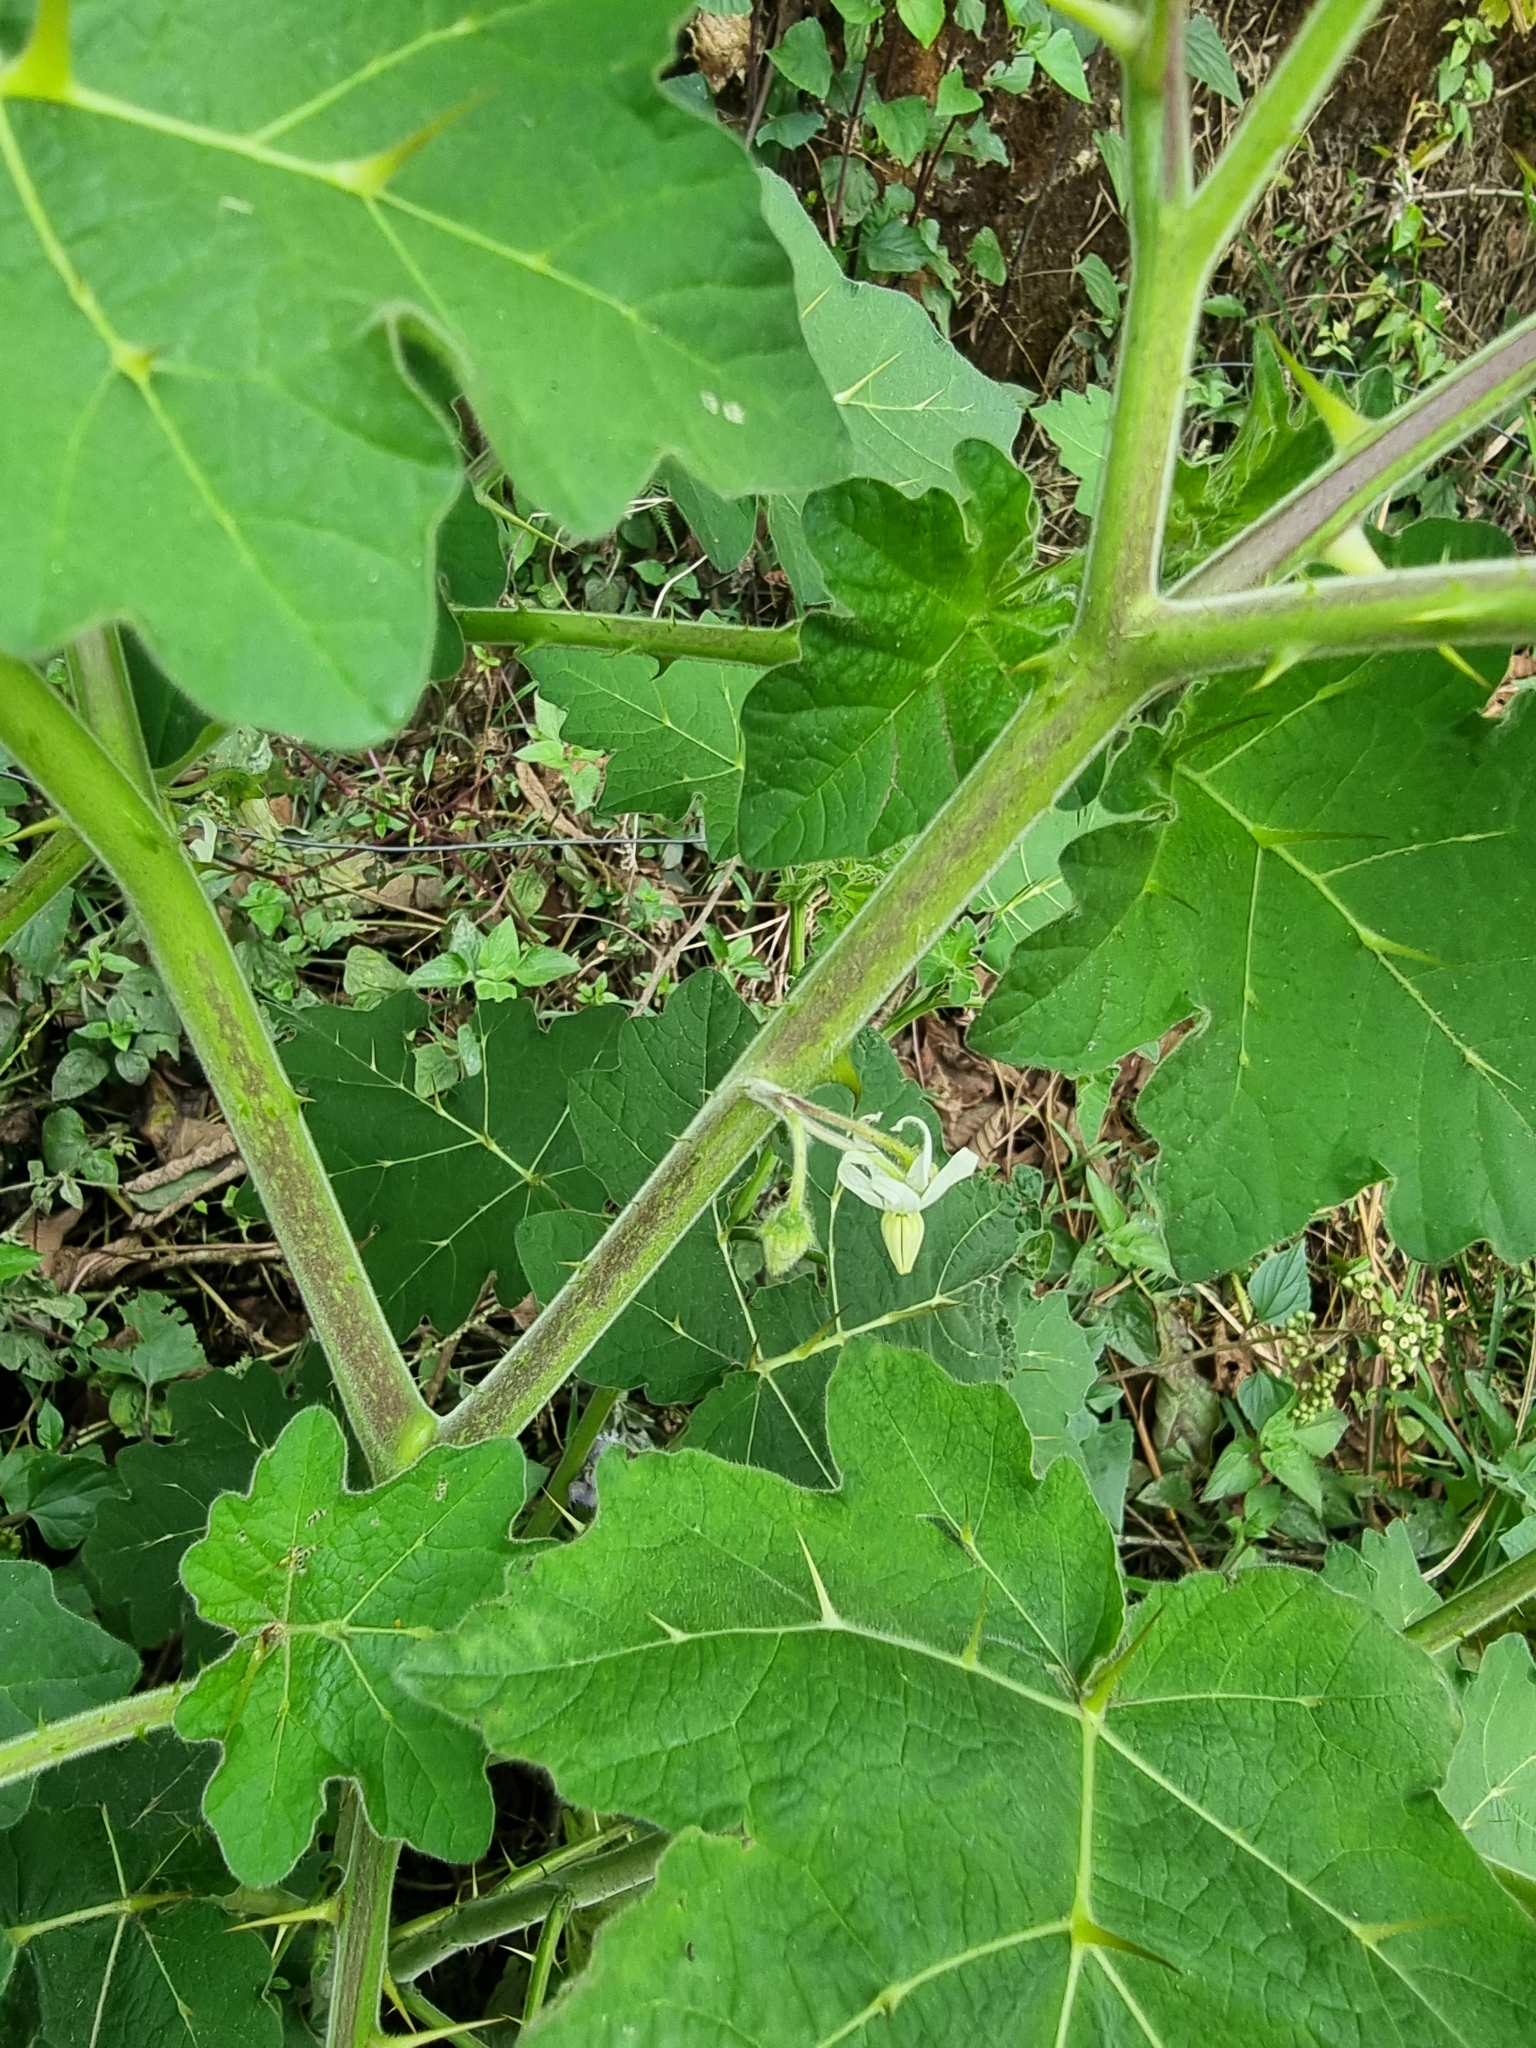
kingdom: Plantae
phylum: Tracheophyta
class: Magnoliopsida
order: Solanales
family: Solanaceae
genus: Solanum
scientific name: Solanum viarum
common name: Tropical soda apple
